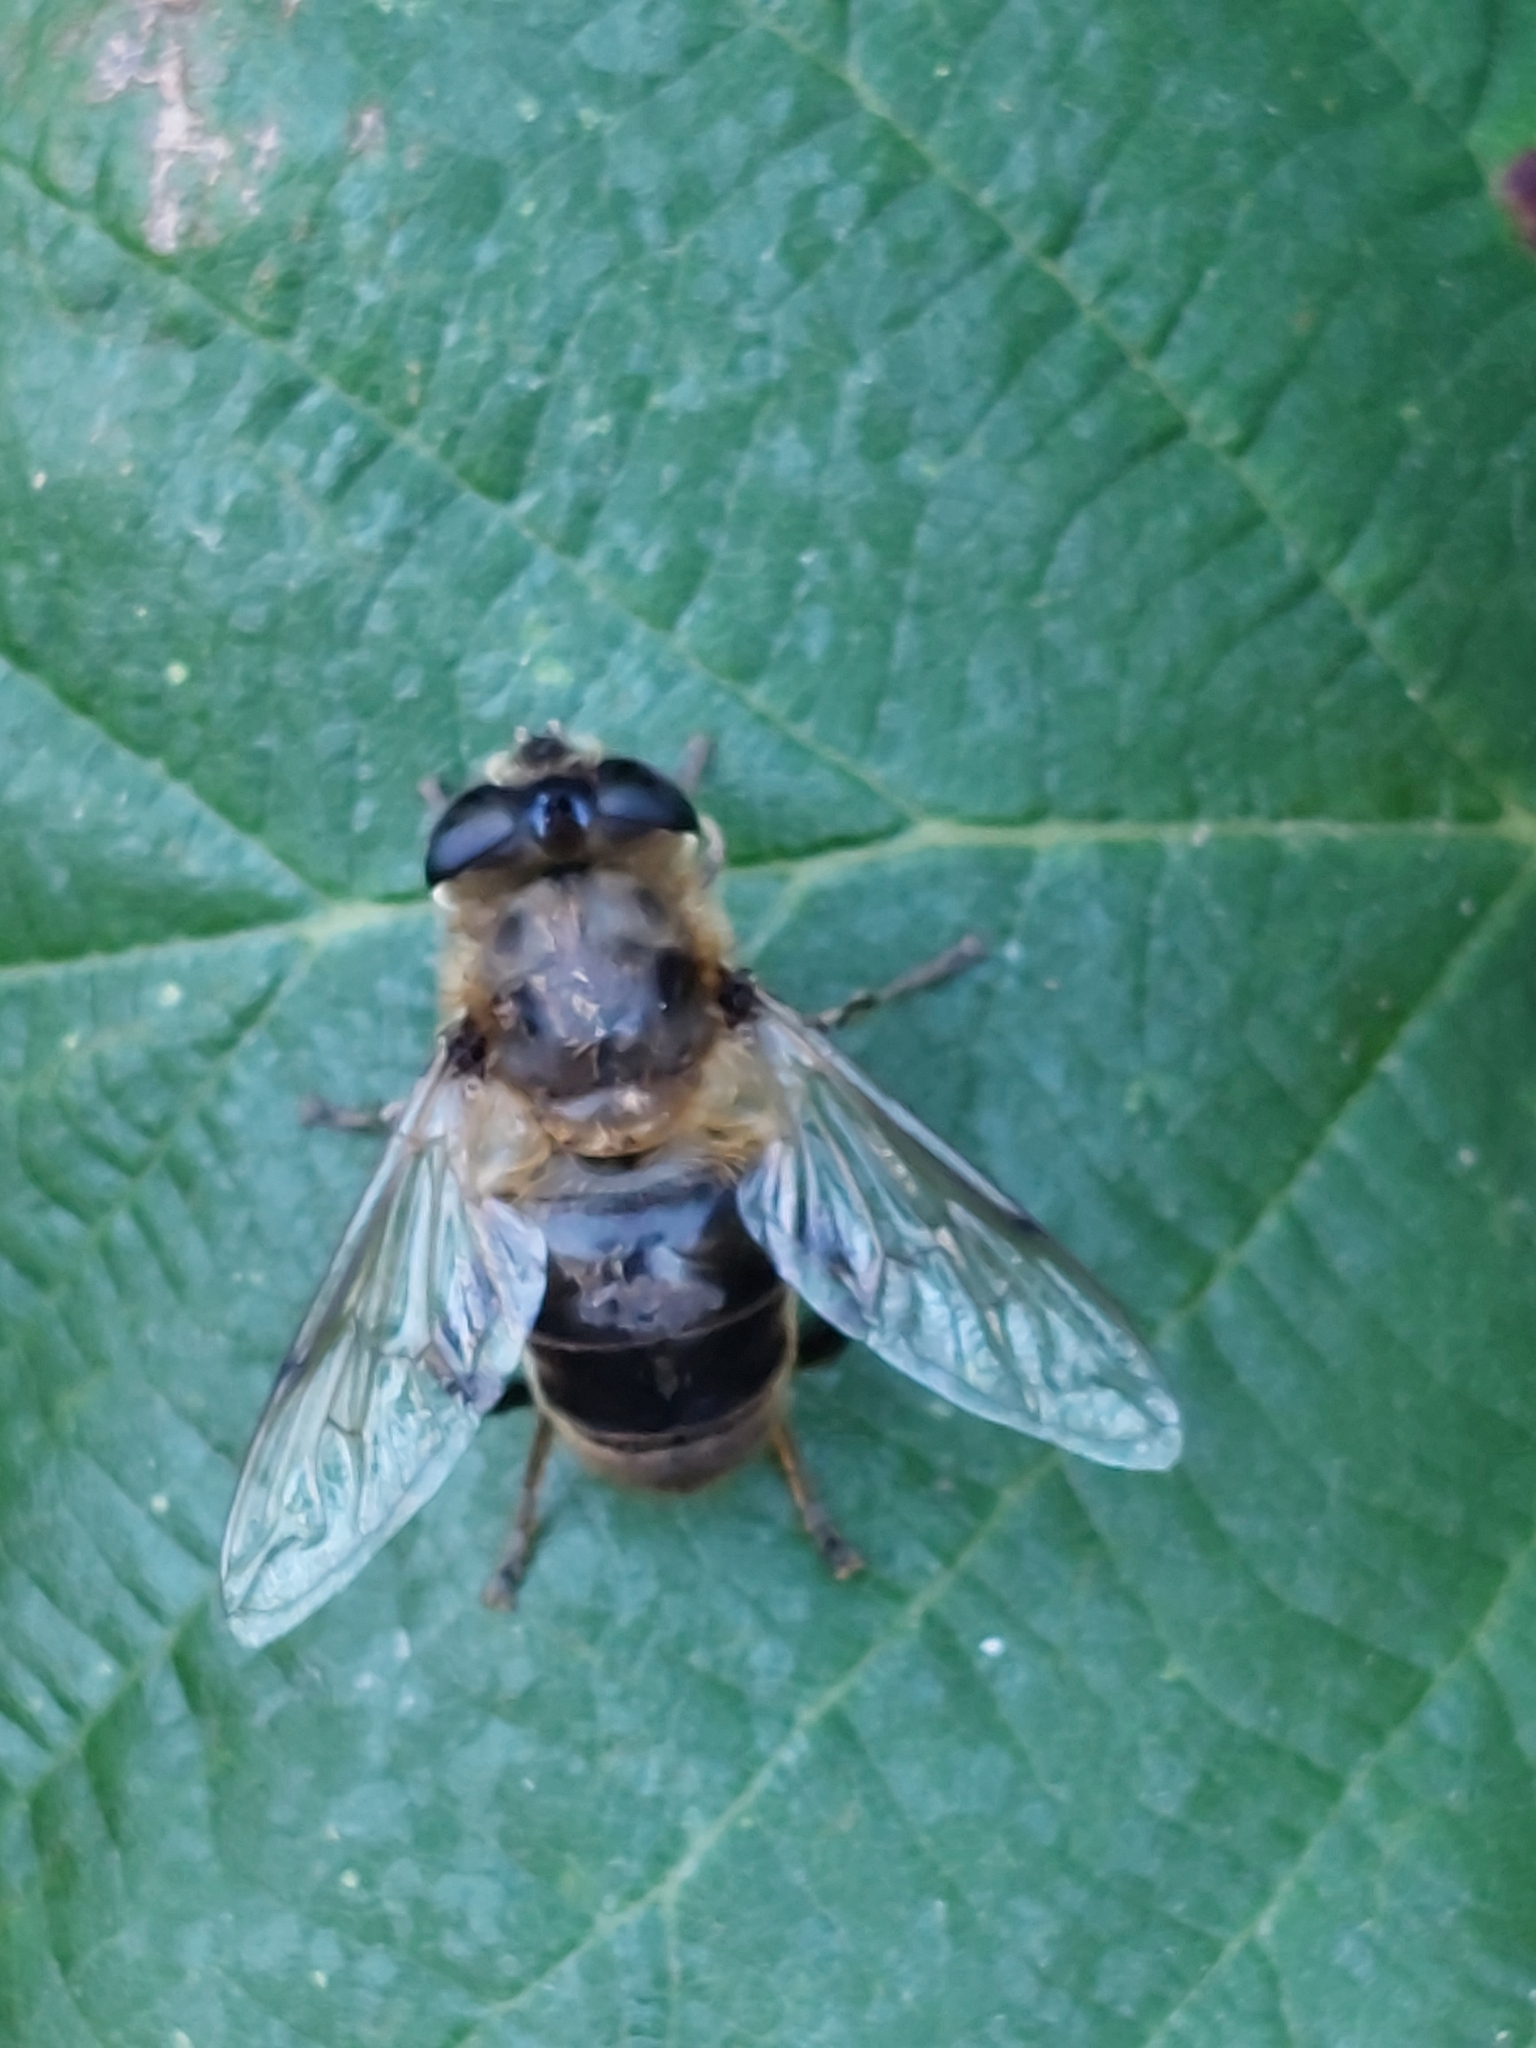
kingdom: Animalia
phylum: Arthropoda
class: Insecta
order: Diptera
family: Syrphidae
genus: Eristalis
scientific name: Eristalis tenax
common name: Drone fly
